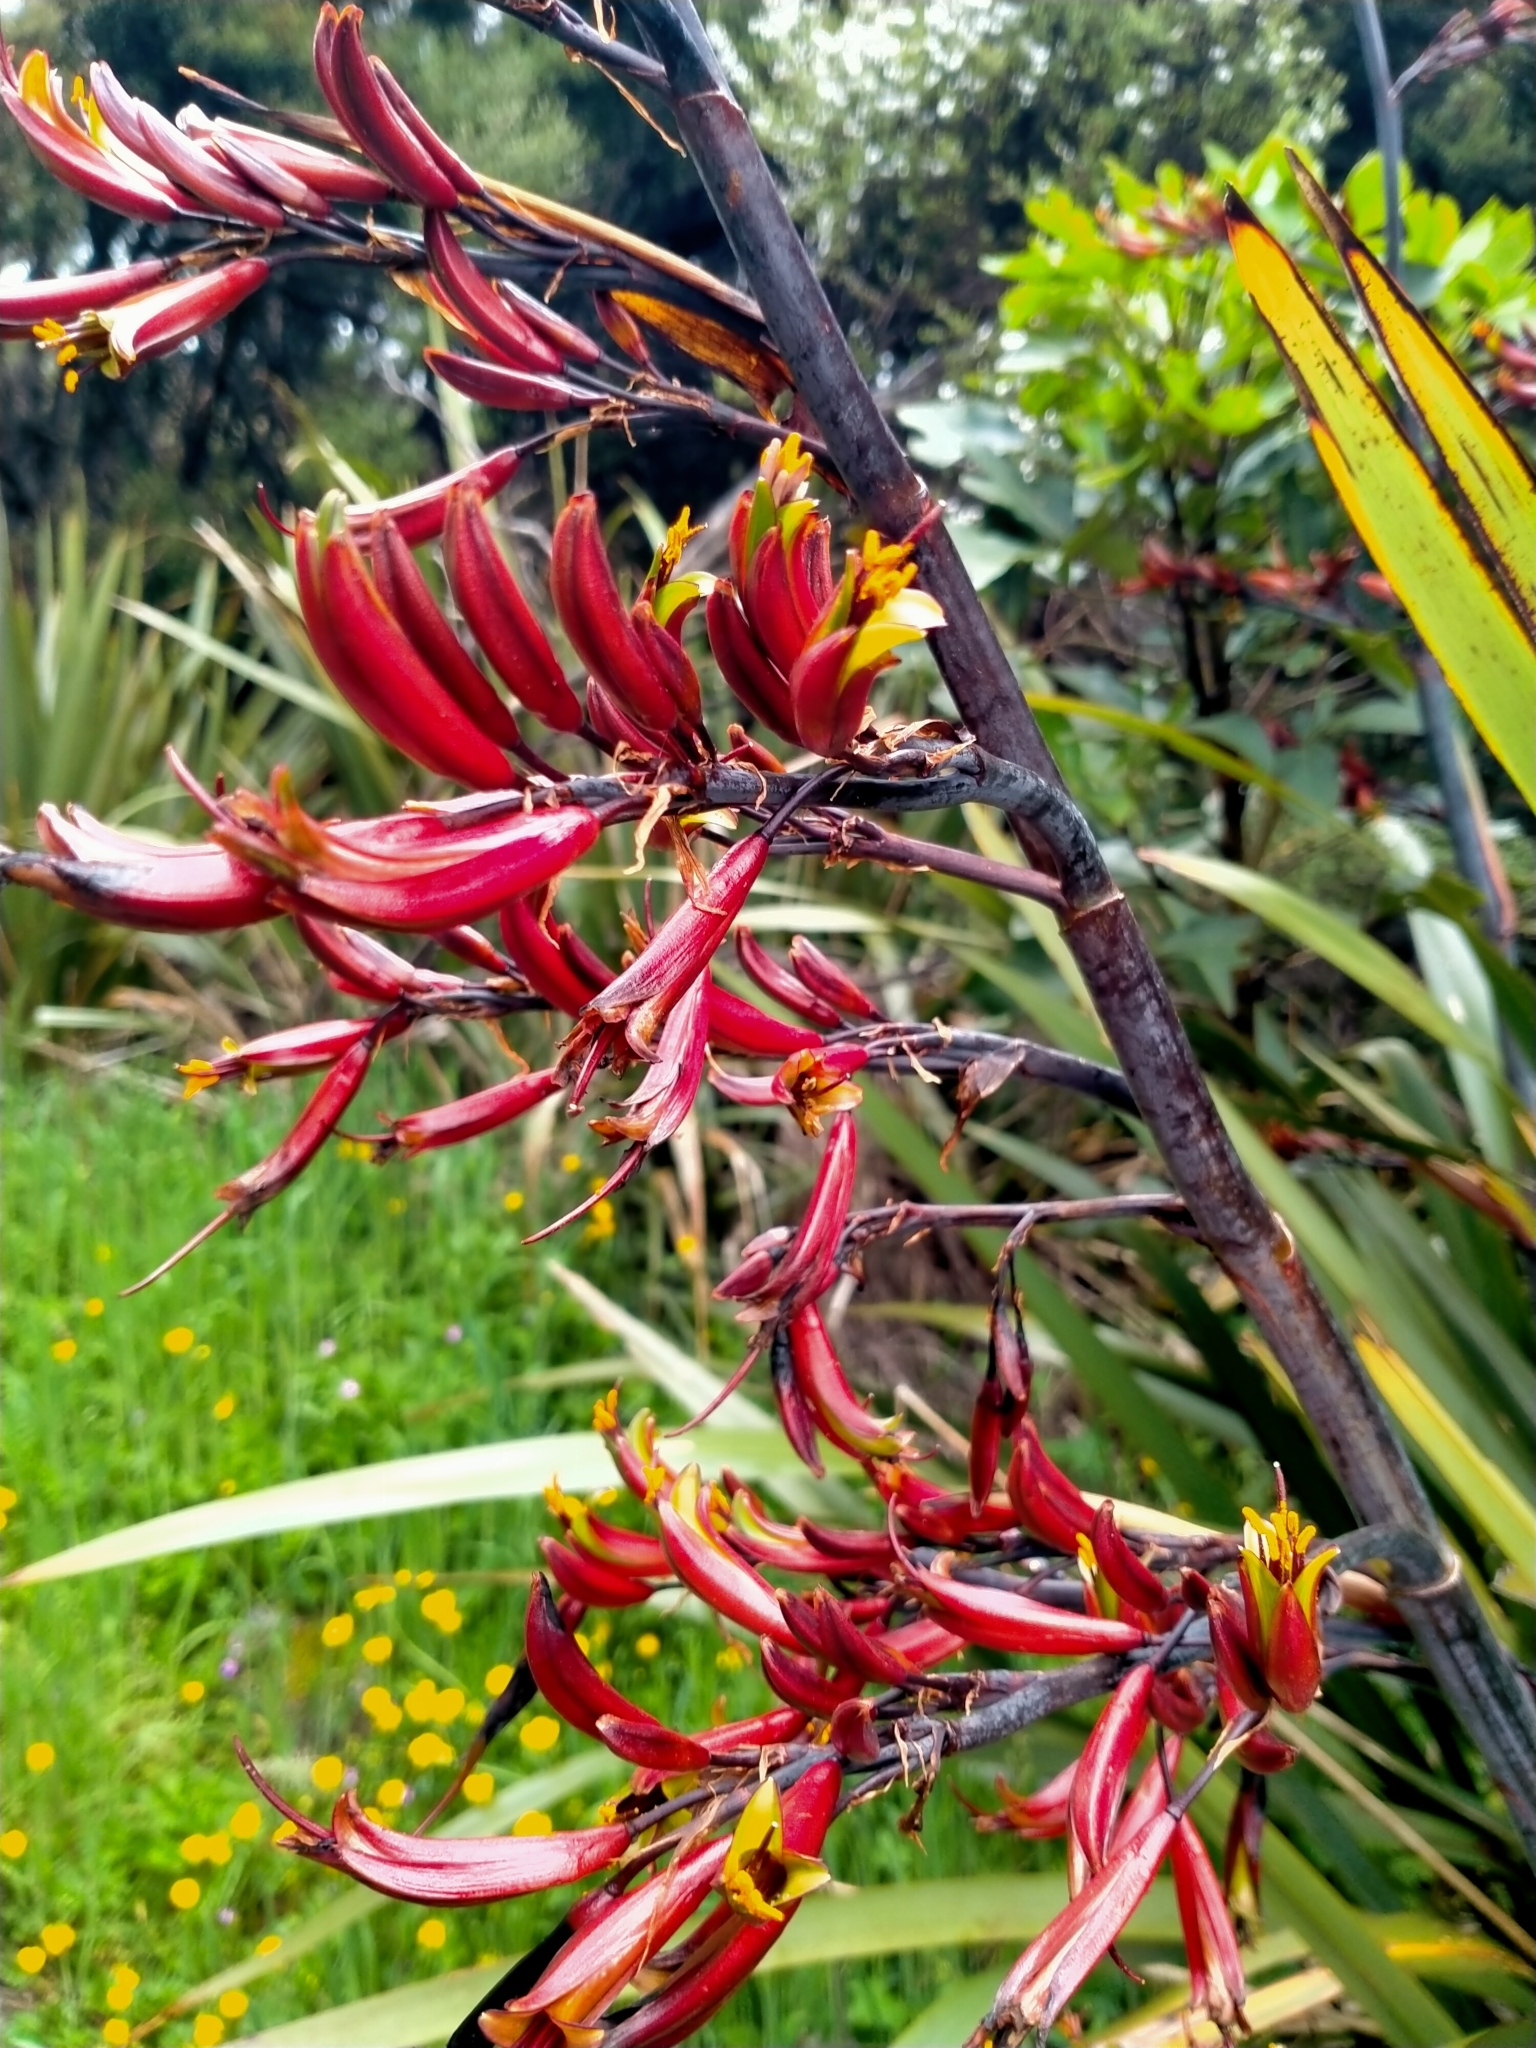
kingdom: Plantae
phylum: Tracheophyta
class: Liliopsida
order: Asparagales
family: Asphodelaceae
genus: Phormium
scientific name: Phormium colensoi
